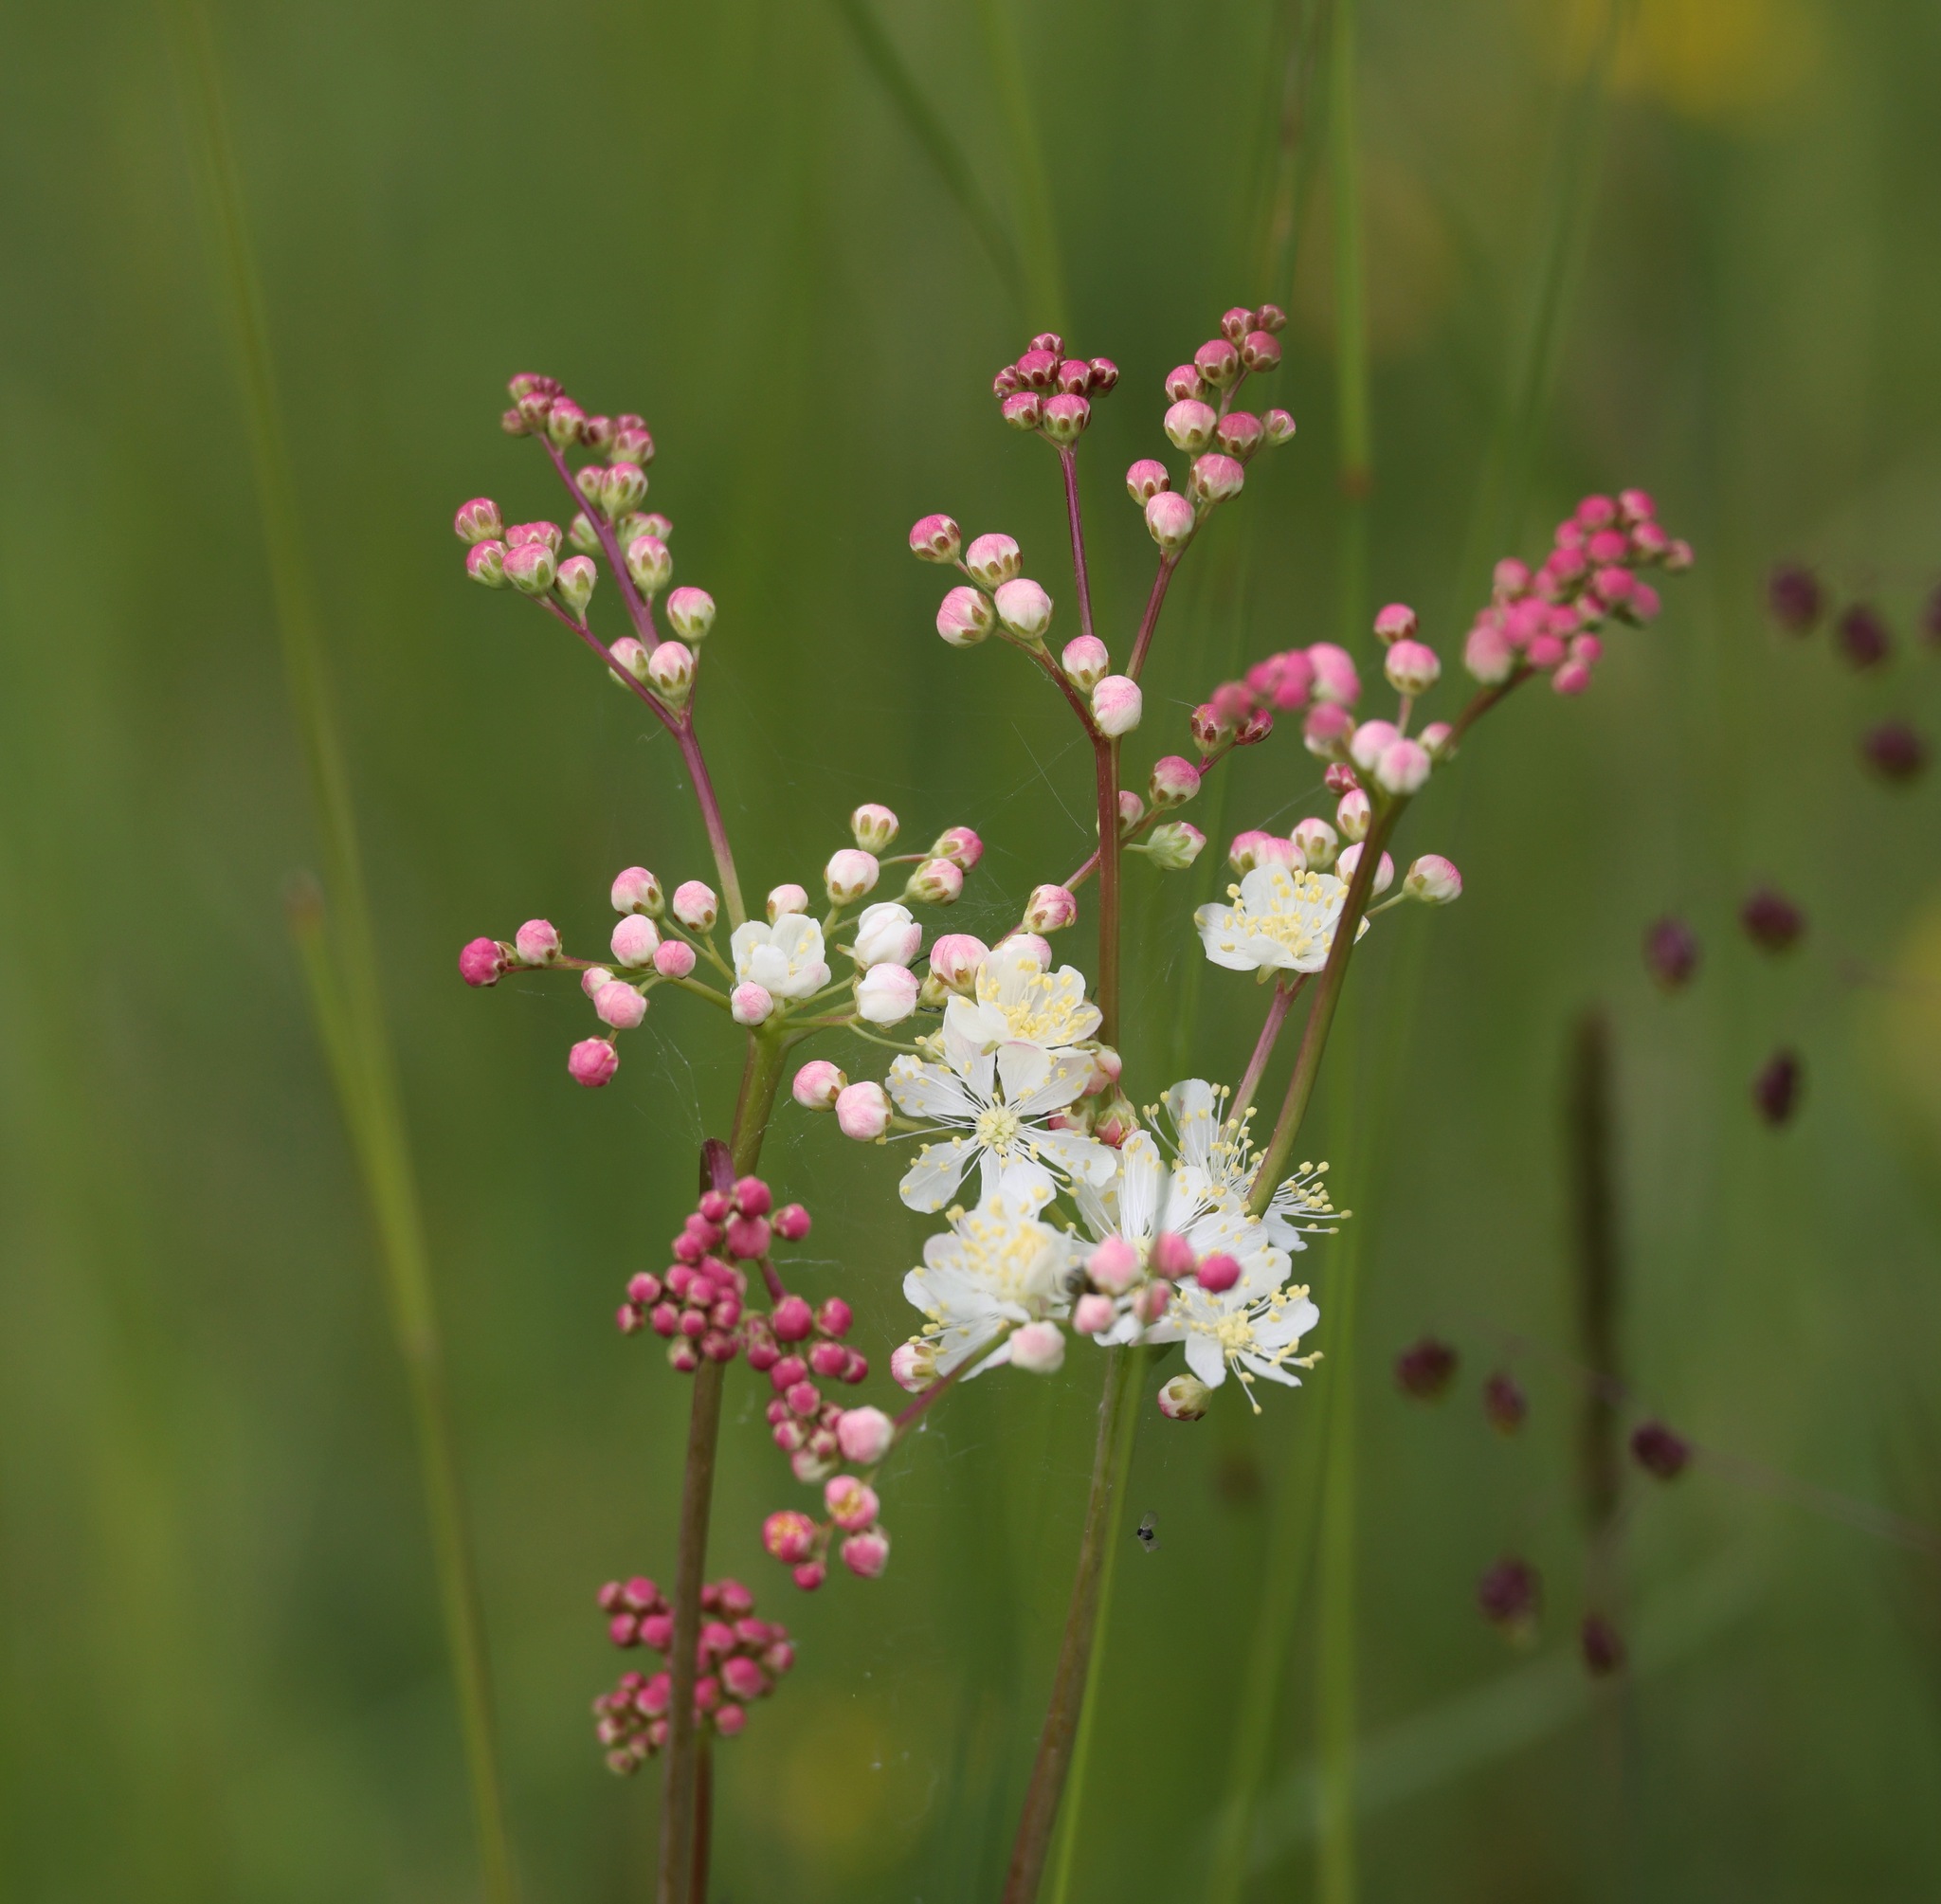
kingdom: Plantae
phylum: Tracheophyta
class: Magnoliopsida
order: Rosales
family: Rosaceae
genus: Filipendula
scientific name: Filipendula vulgaris
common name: Dropwort
